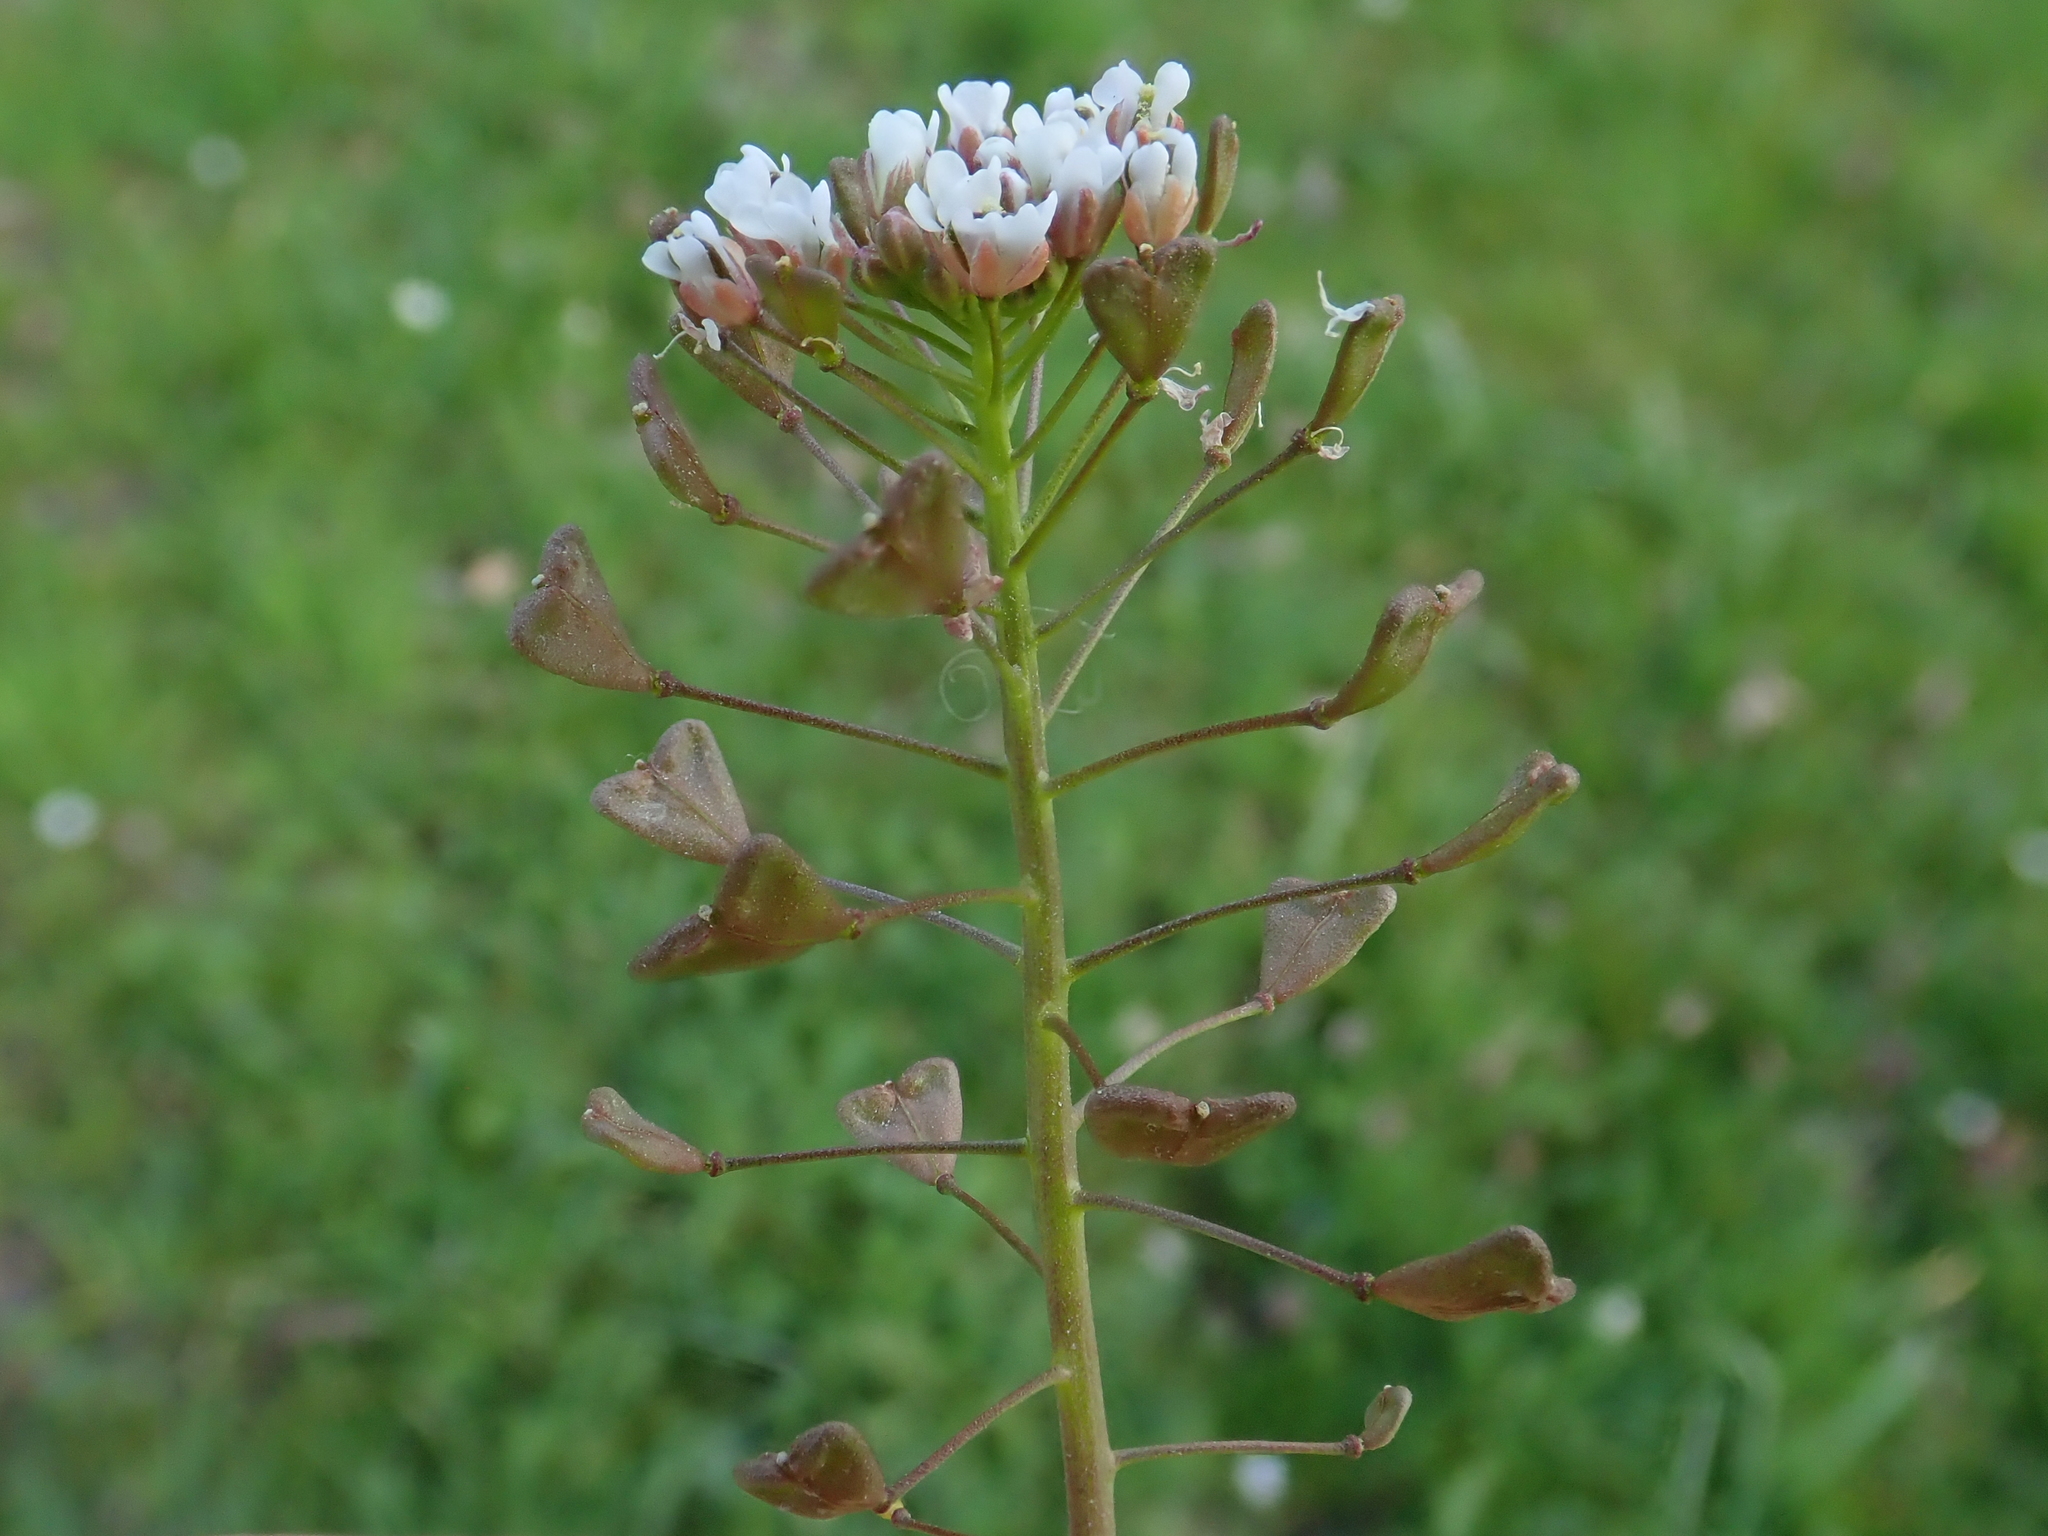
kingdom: Plantae
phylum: Tracheophyta
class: Magnoliopsida
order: Brassicales
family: Brassicaceae
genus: Capsella
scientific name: Capsella bursa-pastoris
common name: Shepherd's purse
